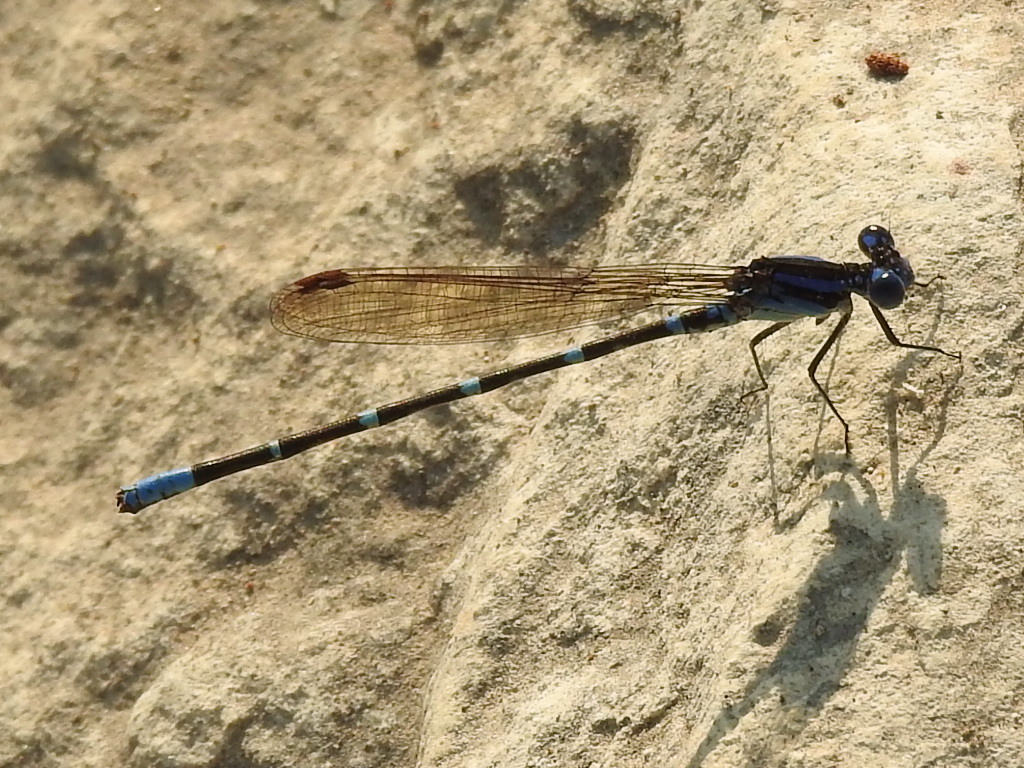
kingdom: Animalia
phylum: Arthropoda
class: Insecta
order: Odonata
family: Coenagrionidae
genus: Argia
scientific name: Argia sedula
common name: Blue-ringed dancer
